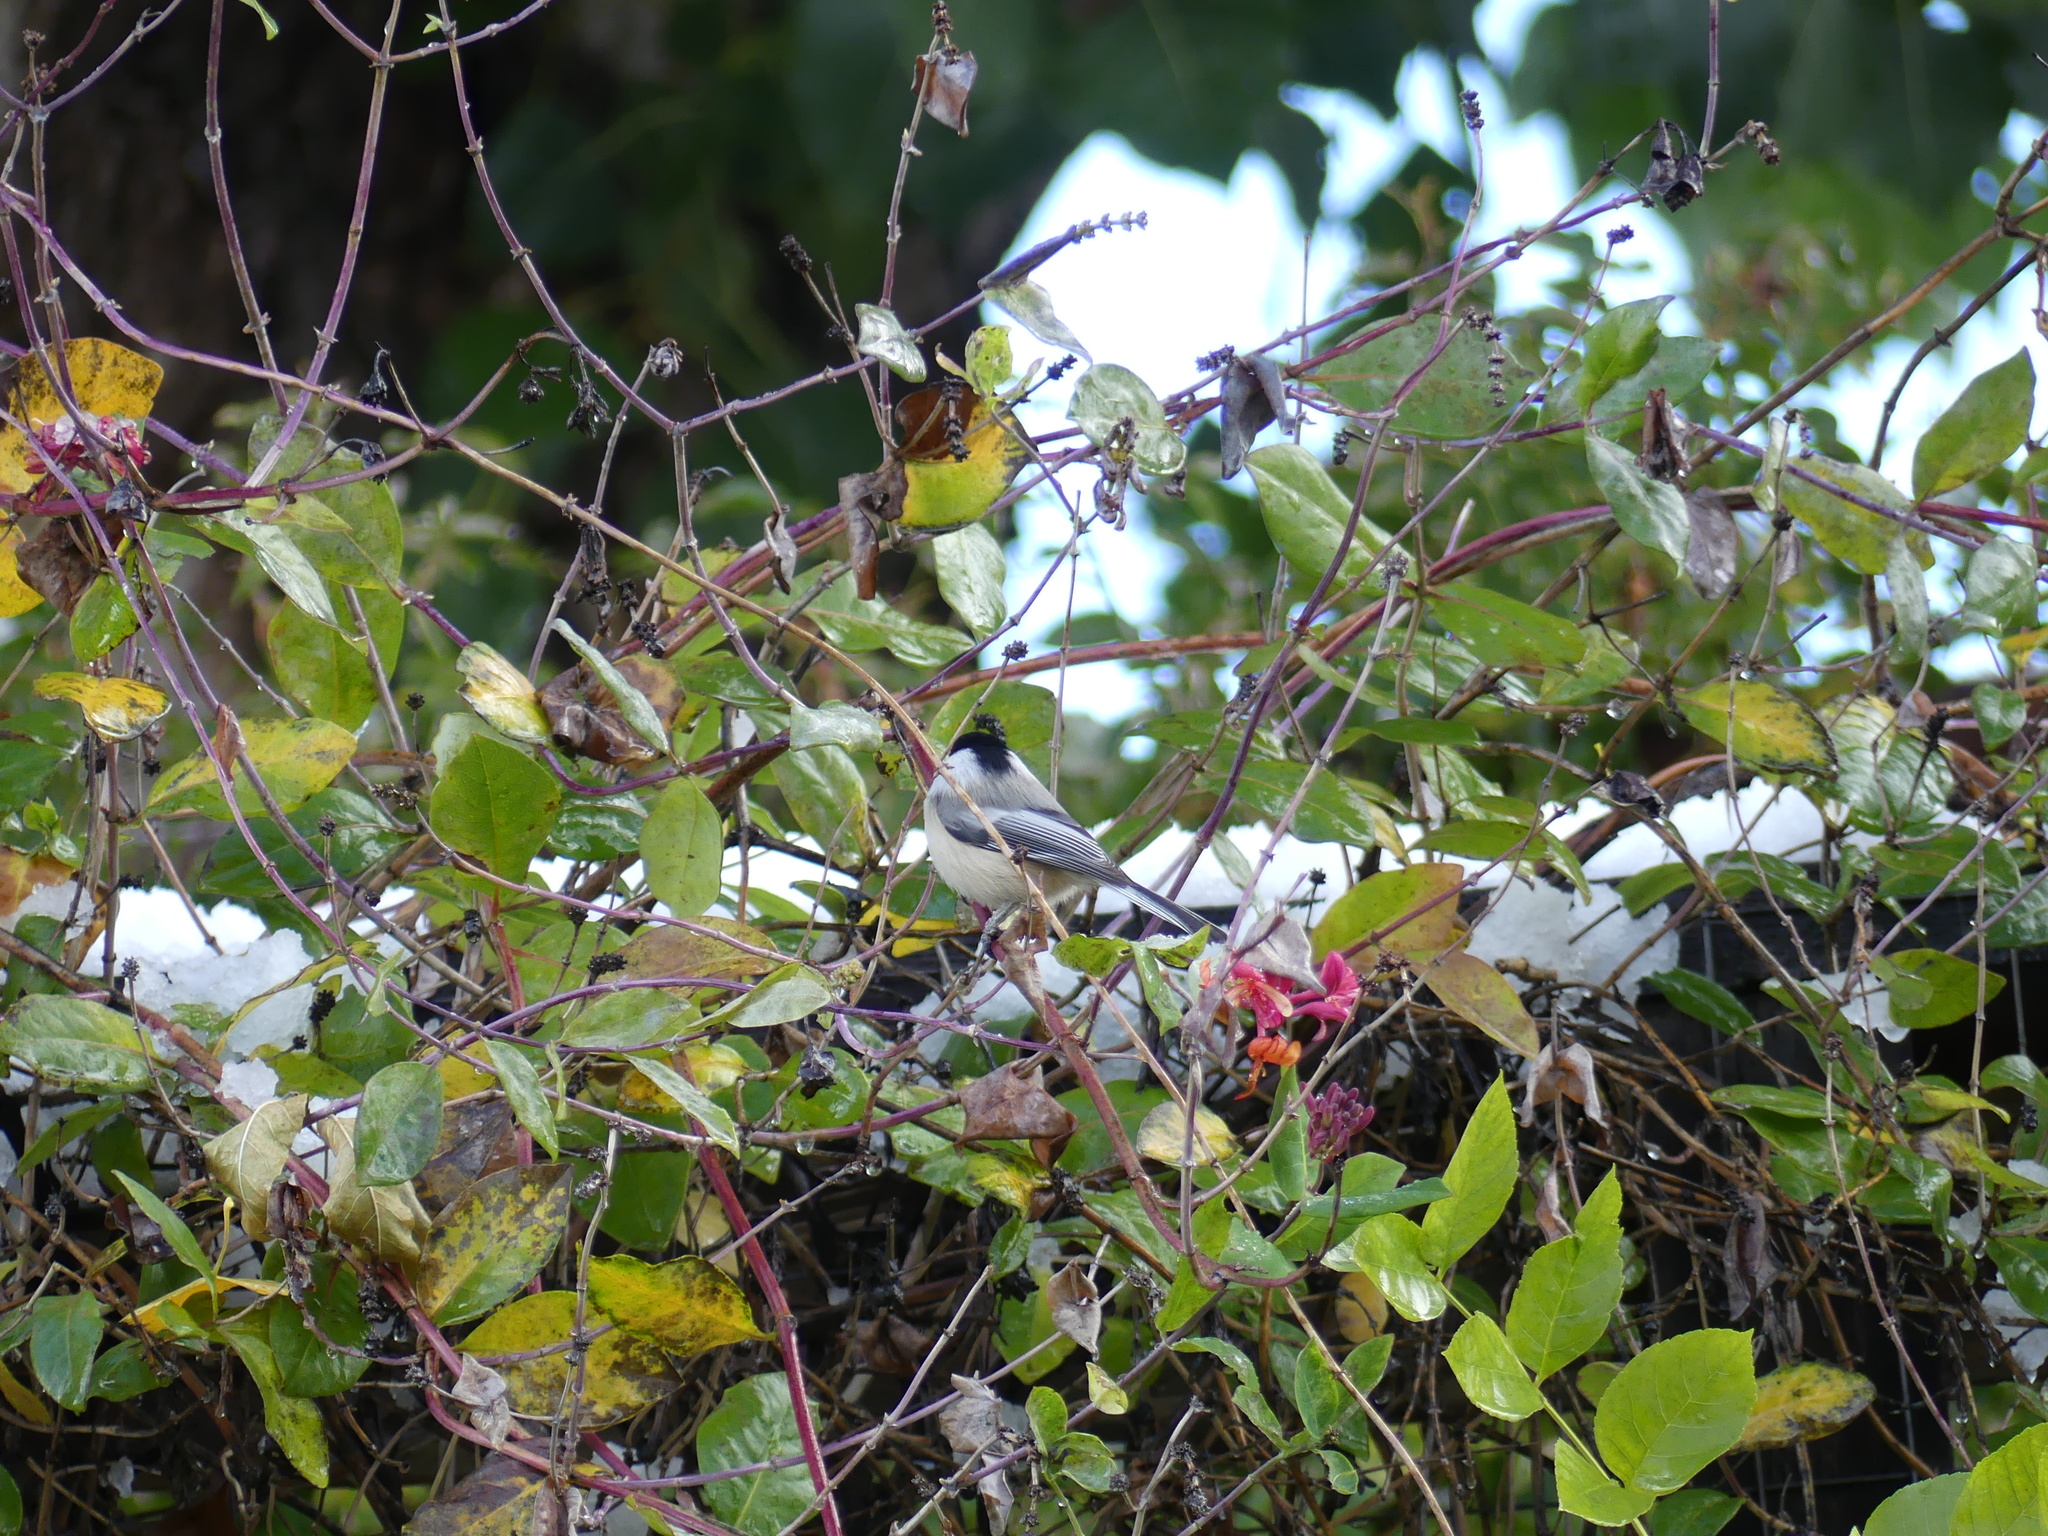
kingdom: Animalia
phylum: Chordata
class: Aves
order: Passeriformes
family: Paridae
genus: Poecile
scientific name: Poecile atricapillus
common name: Black-capped chickadee
